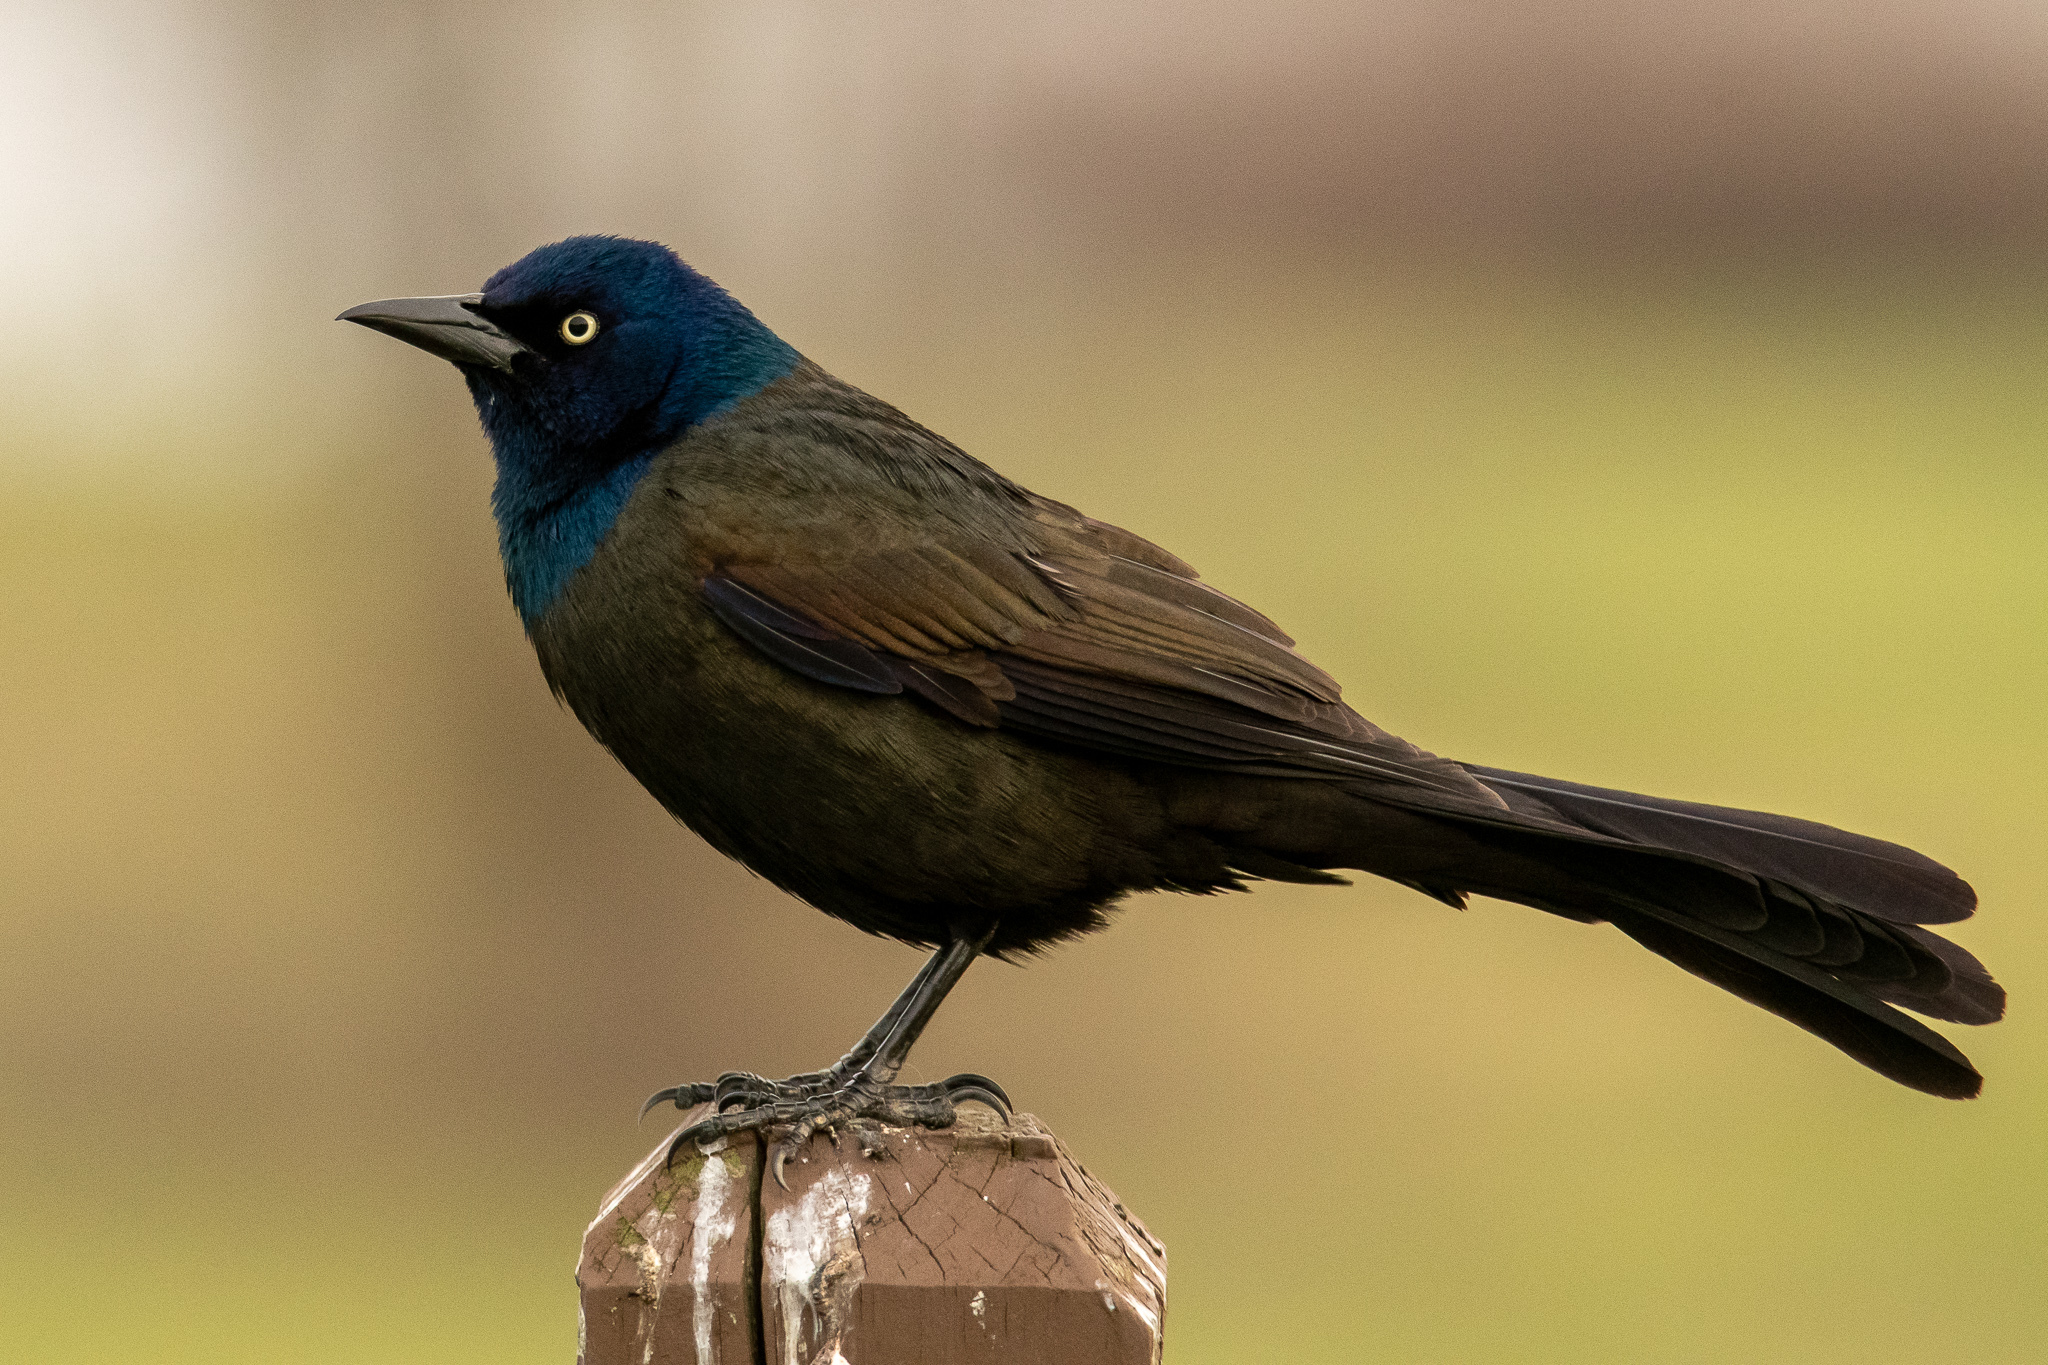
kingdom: Animalia
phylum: Chordata
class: Aves
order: Passeriformes
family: Icteridae
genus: Quiscalus
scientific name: Quiscalus quiscula
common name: Common grackle
